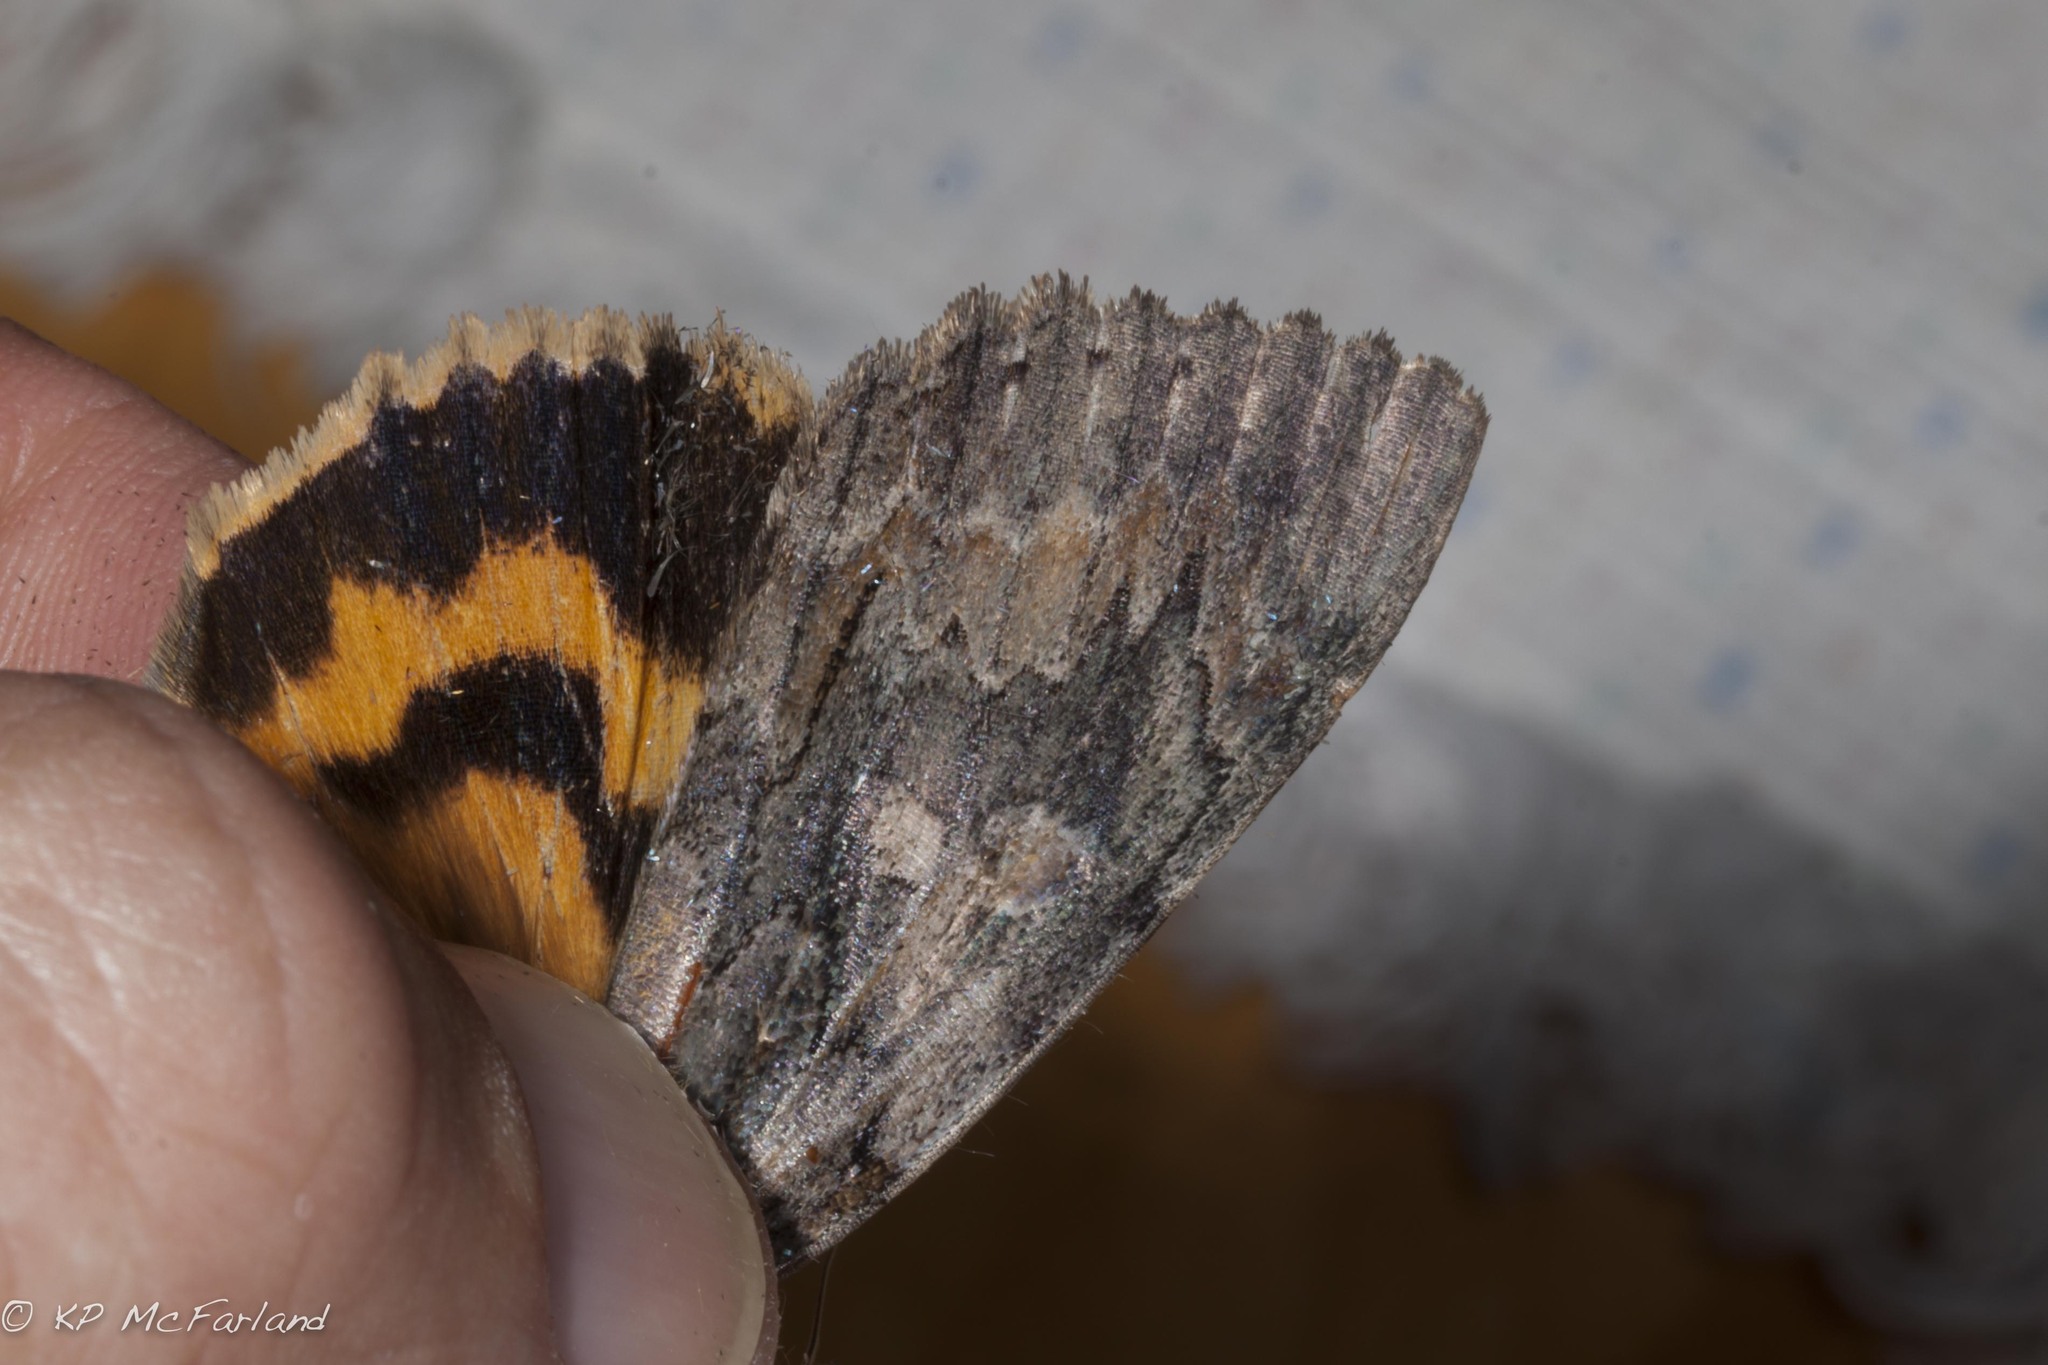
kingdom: Animalia
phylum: Arthropoda
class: Insecta
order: Lepidoptera
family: Erebidae
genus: Catocala
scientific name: Catocala neogama
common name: Bride underwing
